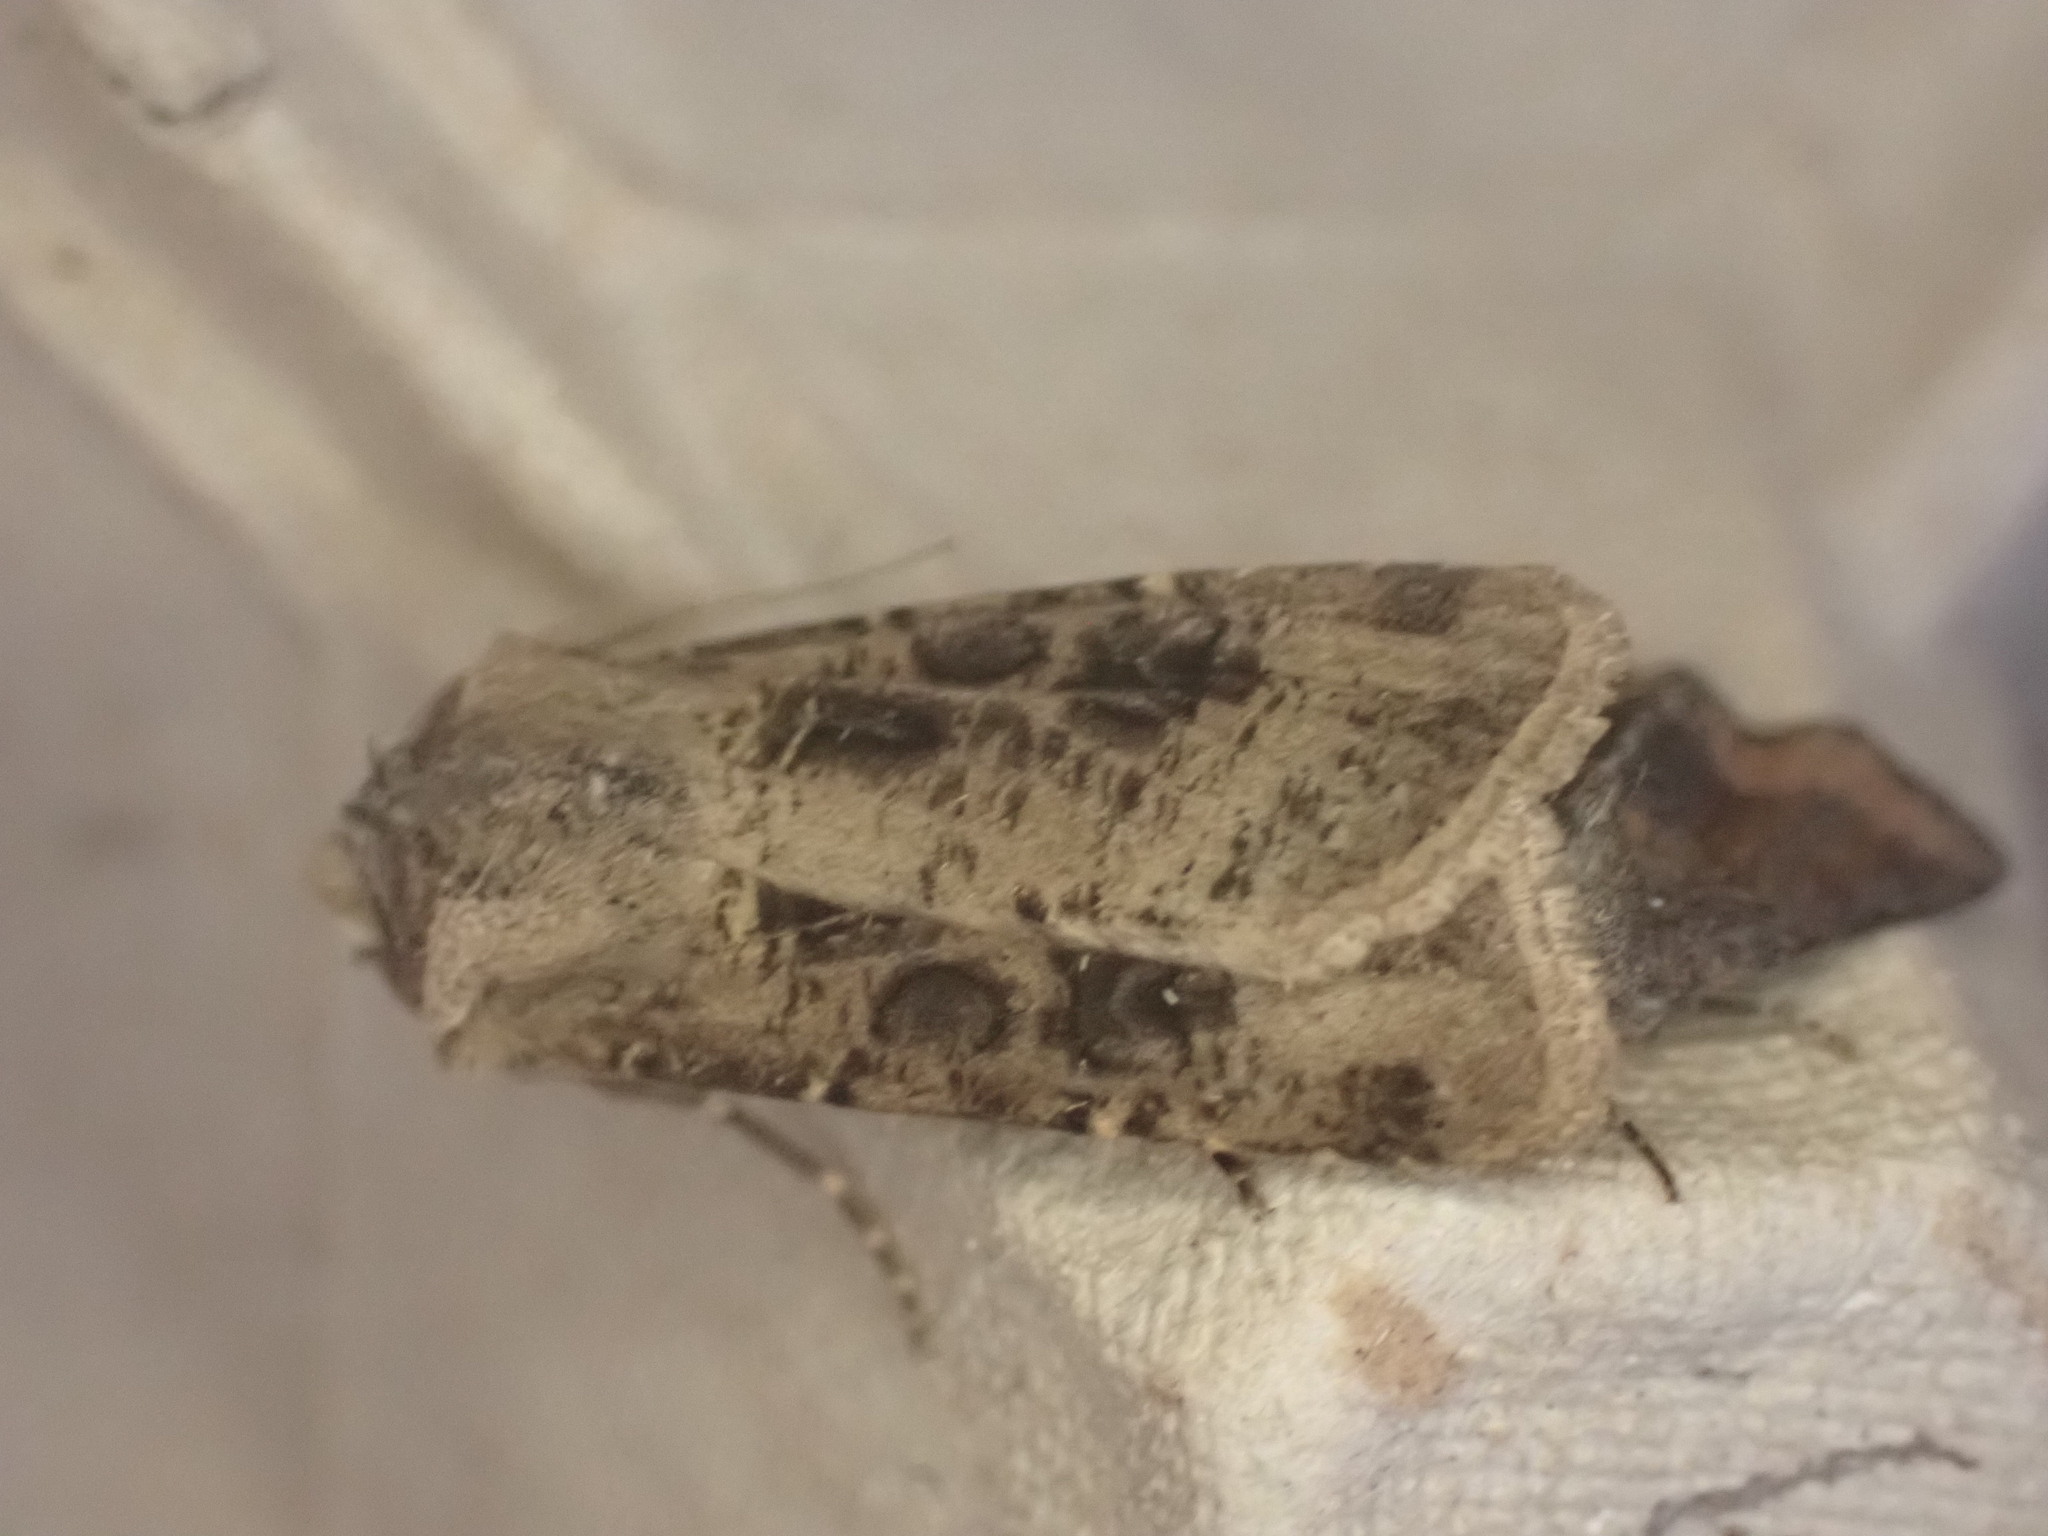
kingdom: Animalia
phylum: Arthropoda
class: Insecta
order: Lepidoptera
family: Noctuidae
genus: Agrotis
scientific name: Agrotis clavis
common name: Heart and club
